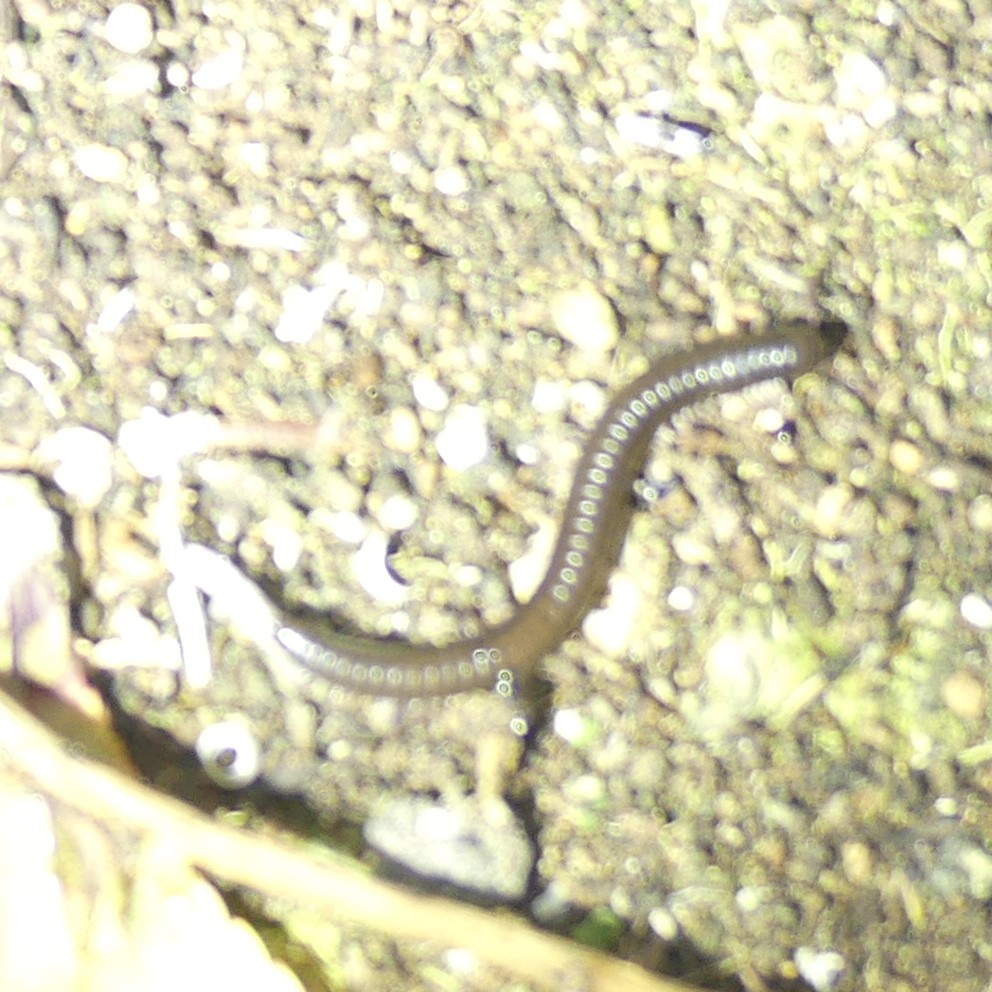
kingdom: Animalia
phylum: Arthropoda
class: Diplopoda
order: Julida
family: Julidae
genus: Ommatoiulus
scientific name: Ommatoiulus moreleti
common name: Portuguese millipede
